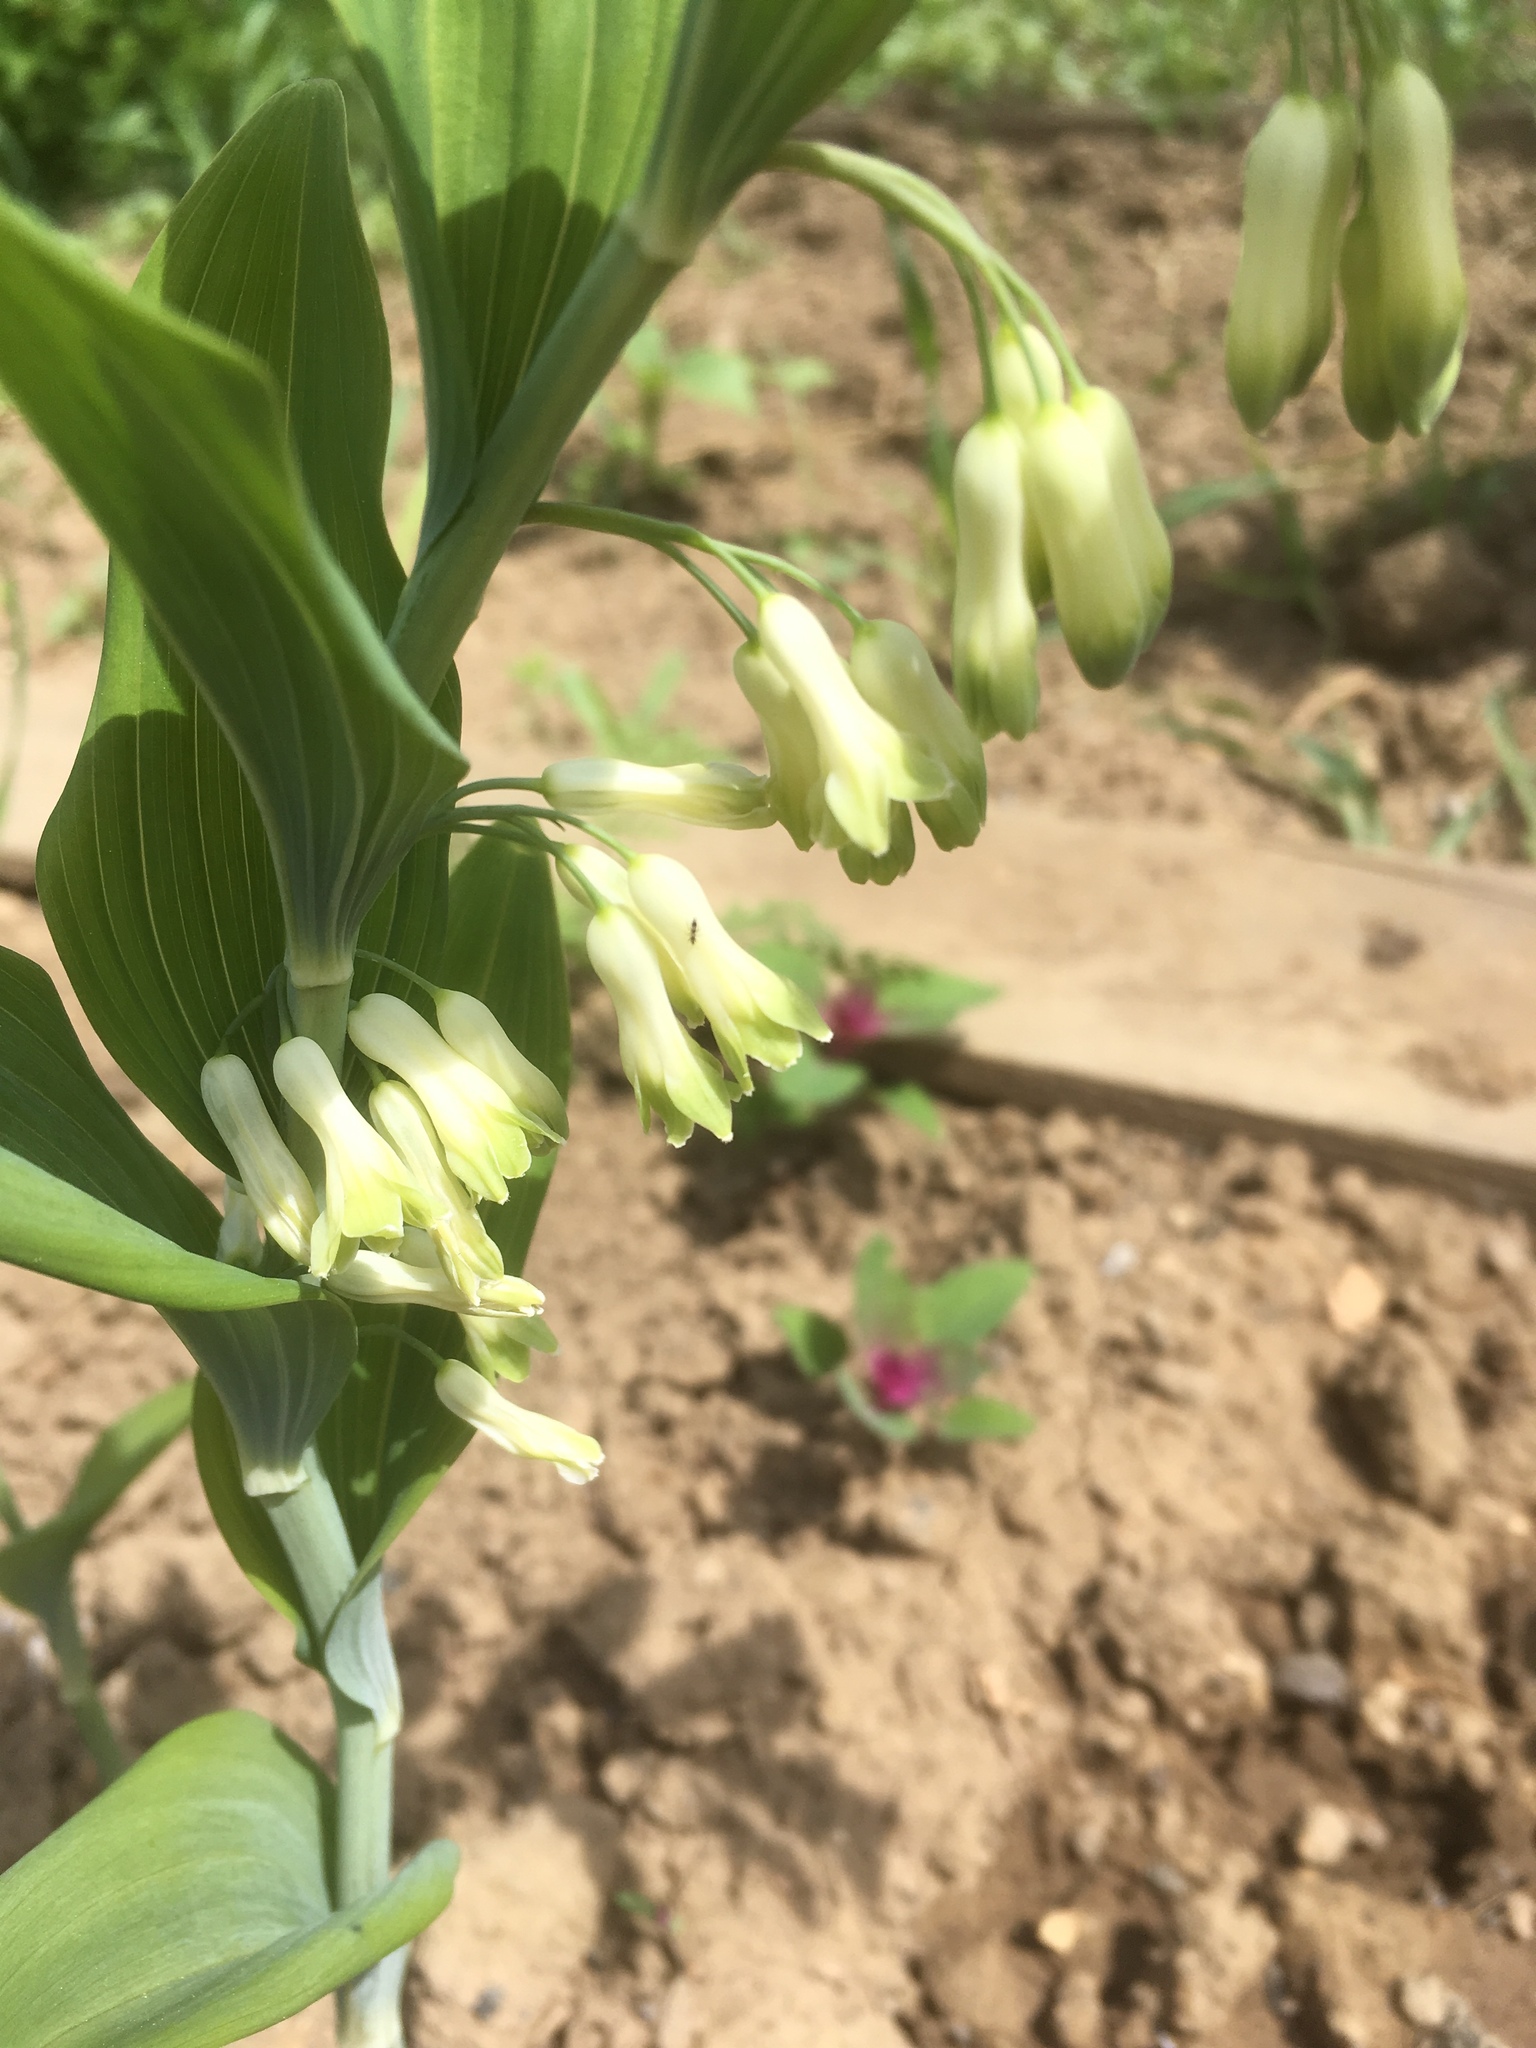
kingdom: Plantae
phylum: Tracheophyta
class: Liliopsida
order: Asparagales
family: Asparagaceae
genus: Polygonatum
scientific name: Polygonatum multiflorum
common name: Solomon's-seal
